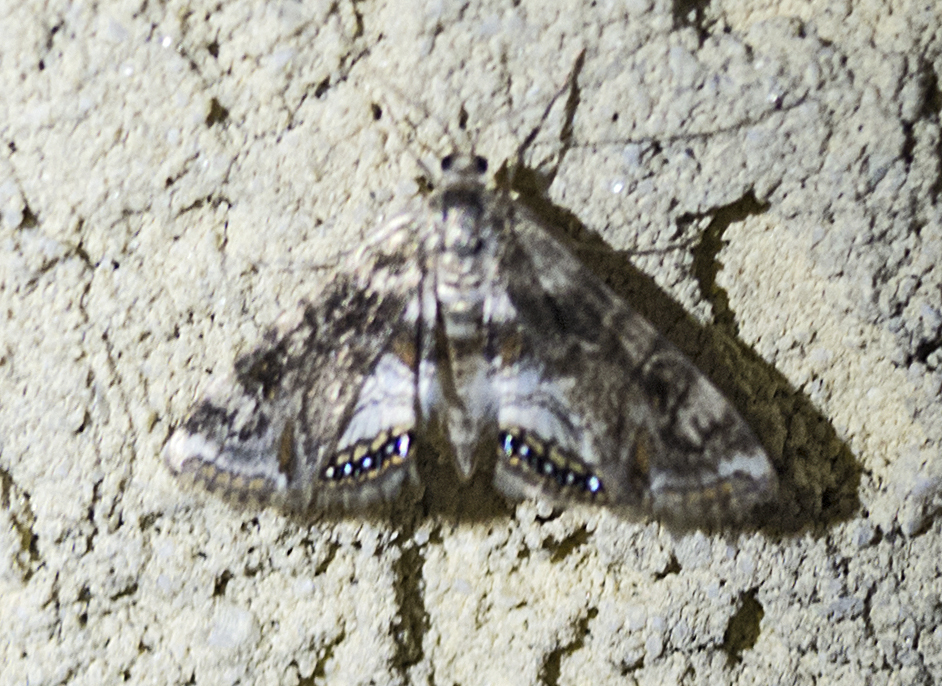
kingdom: Animalia
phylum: Arthropoda
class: Insecta
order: Lepidoptera
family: Crambidae
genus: Cataclysta
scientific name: Cataclysta lemnata
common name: Small china-mark
